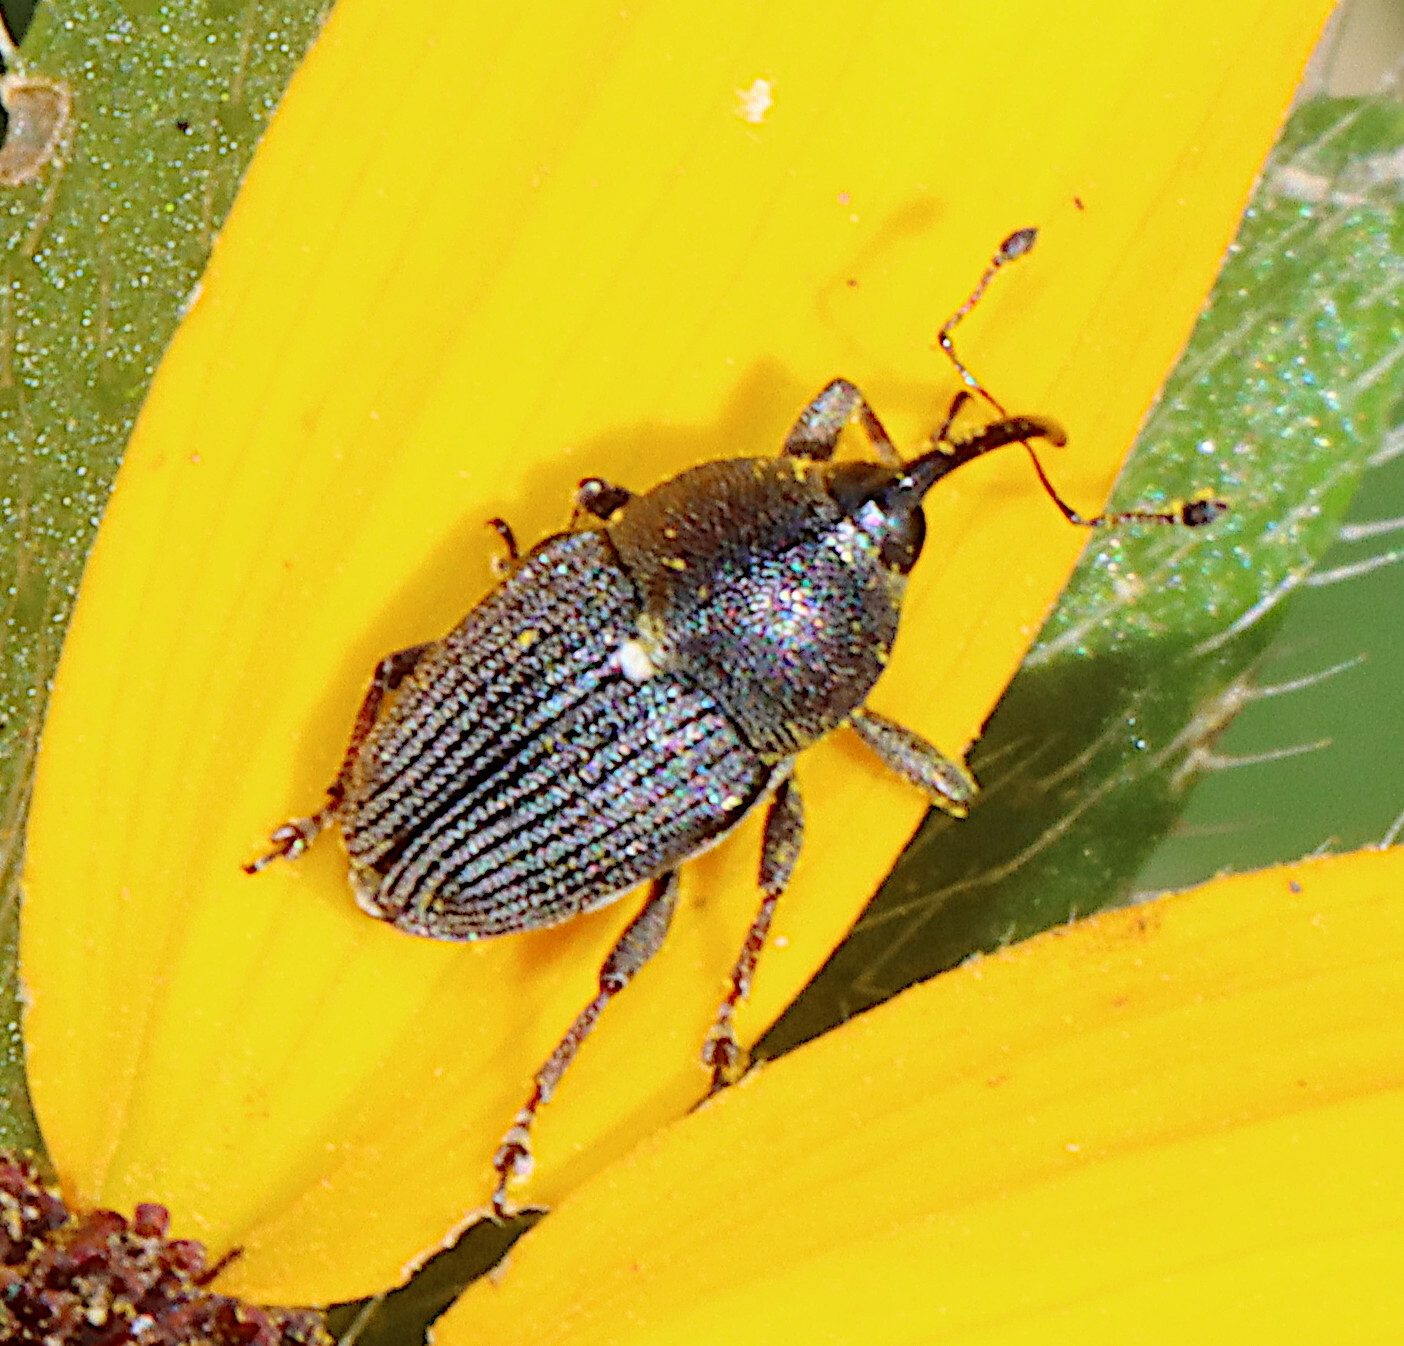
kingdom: Animalia
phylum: Arthropoda
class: Insecta
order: Coleoptera
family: Curculionidae
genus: Odontocorynus
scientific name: Odontocorynus salebrosus
